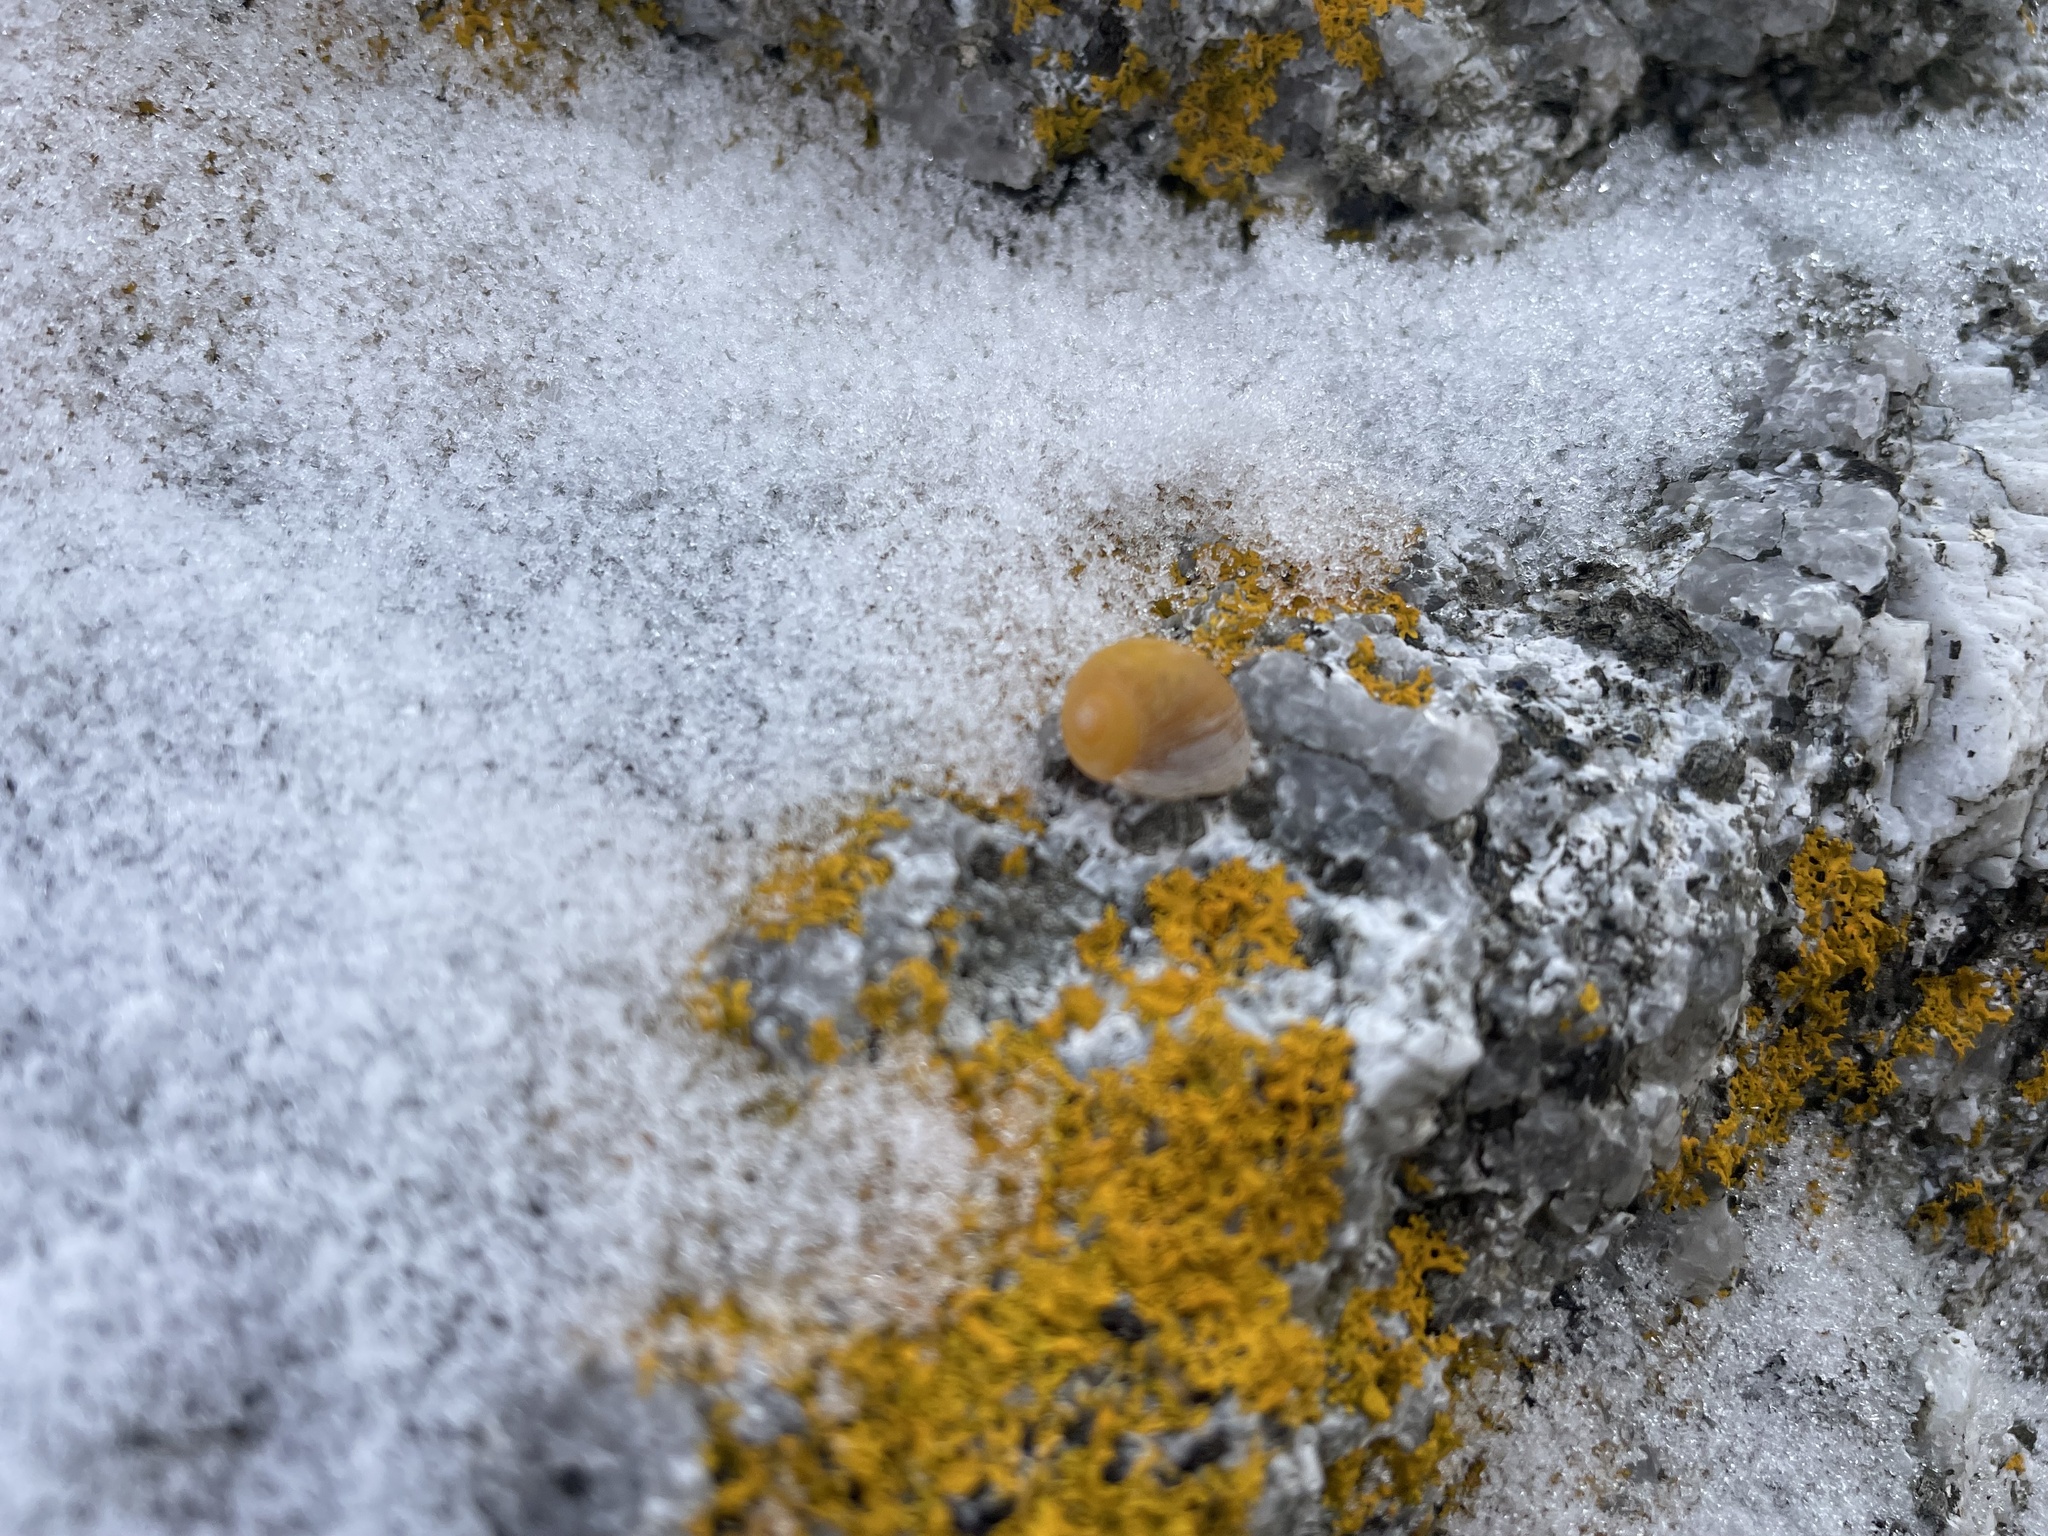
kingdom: Animalia
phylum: Mollusca
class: Gastropoda
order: Littorinimorpha
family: Littorinidae
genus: Littorina
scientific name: Littorina obtusata
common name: Flat periwinkle
